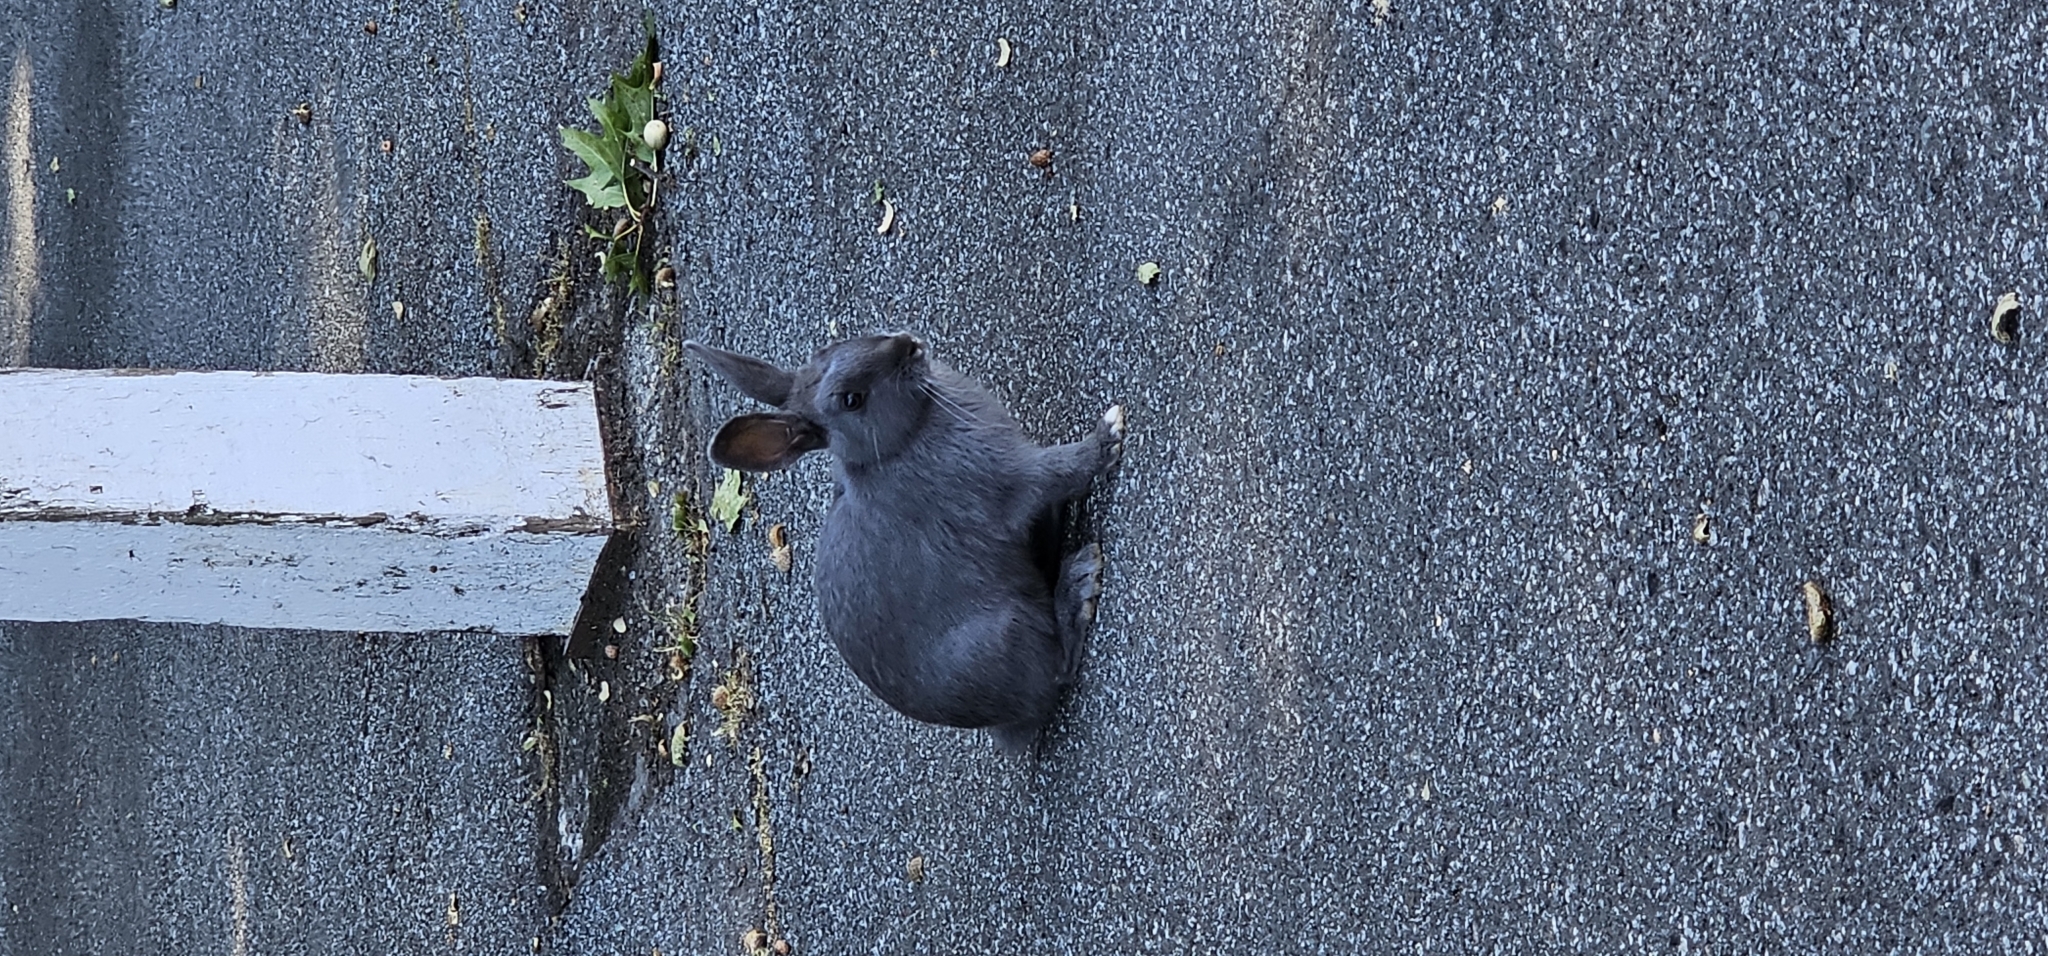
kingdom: Animalia
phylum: Chordata
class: Mammalia
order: Lagomorpha
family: Leporidae
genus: Oryctolagus
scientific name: Oryctolagus cuniculus
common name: European rabbit
